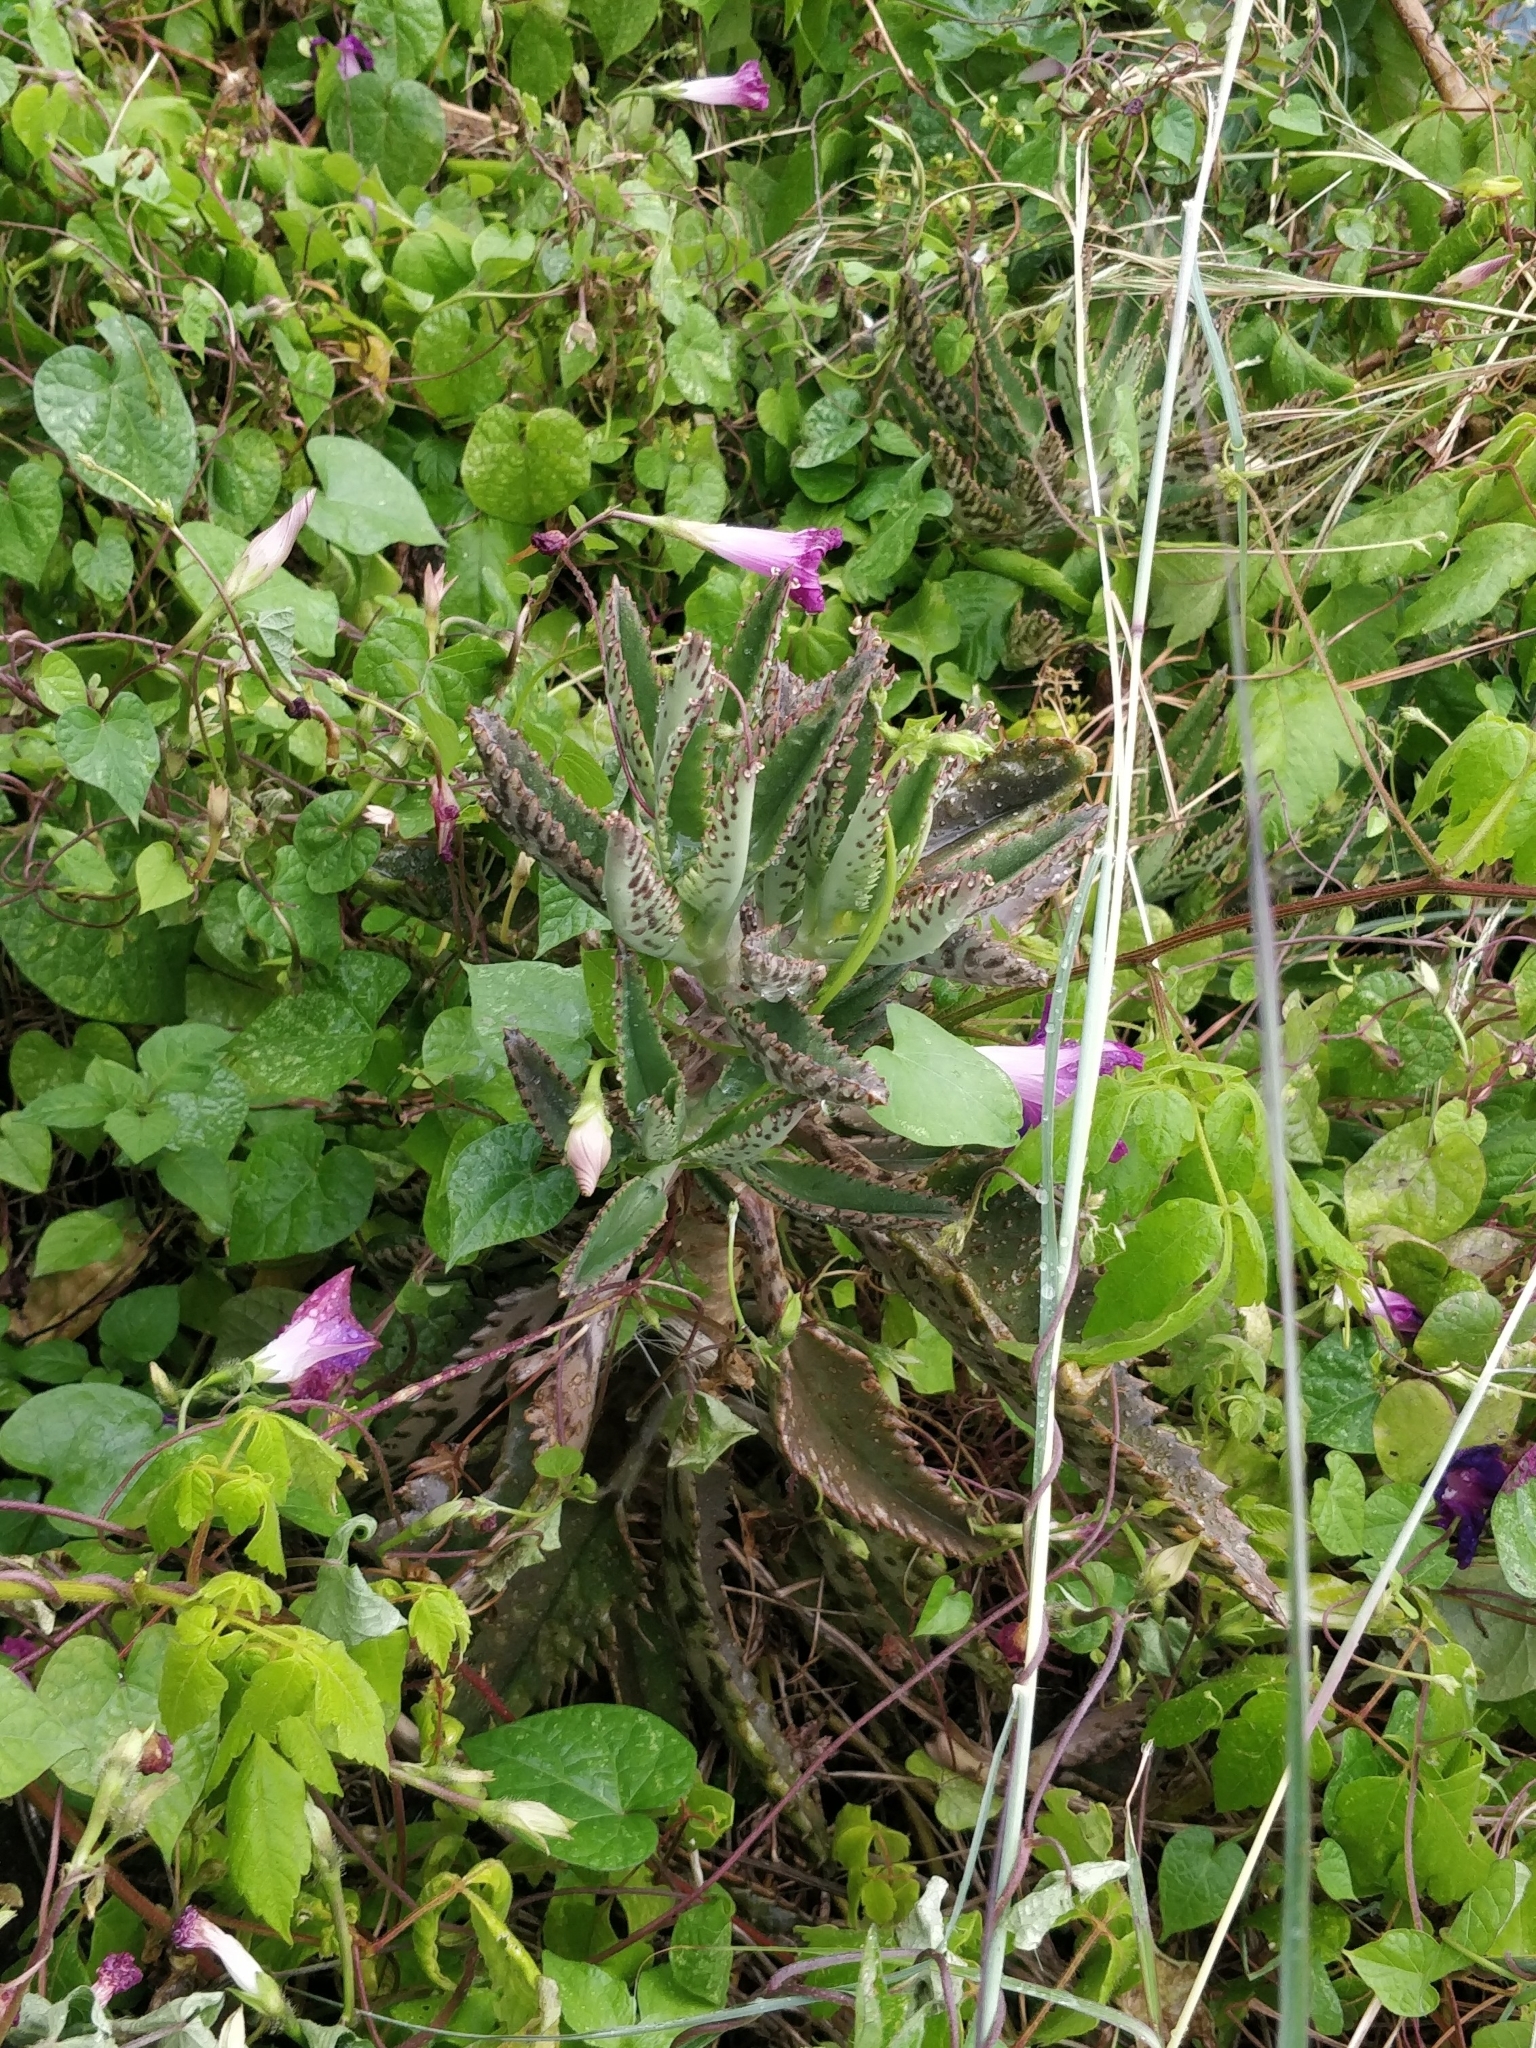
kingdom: Plantae
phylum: Tracheophyta
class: Magnoliopsida
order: Saxifragales
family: Crassulaceae
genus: Kalanchoe
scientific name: Kalanchoe houghtonii
